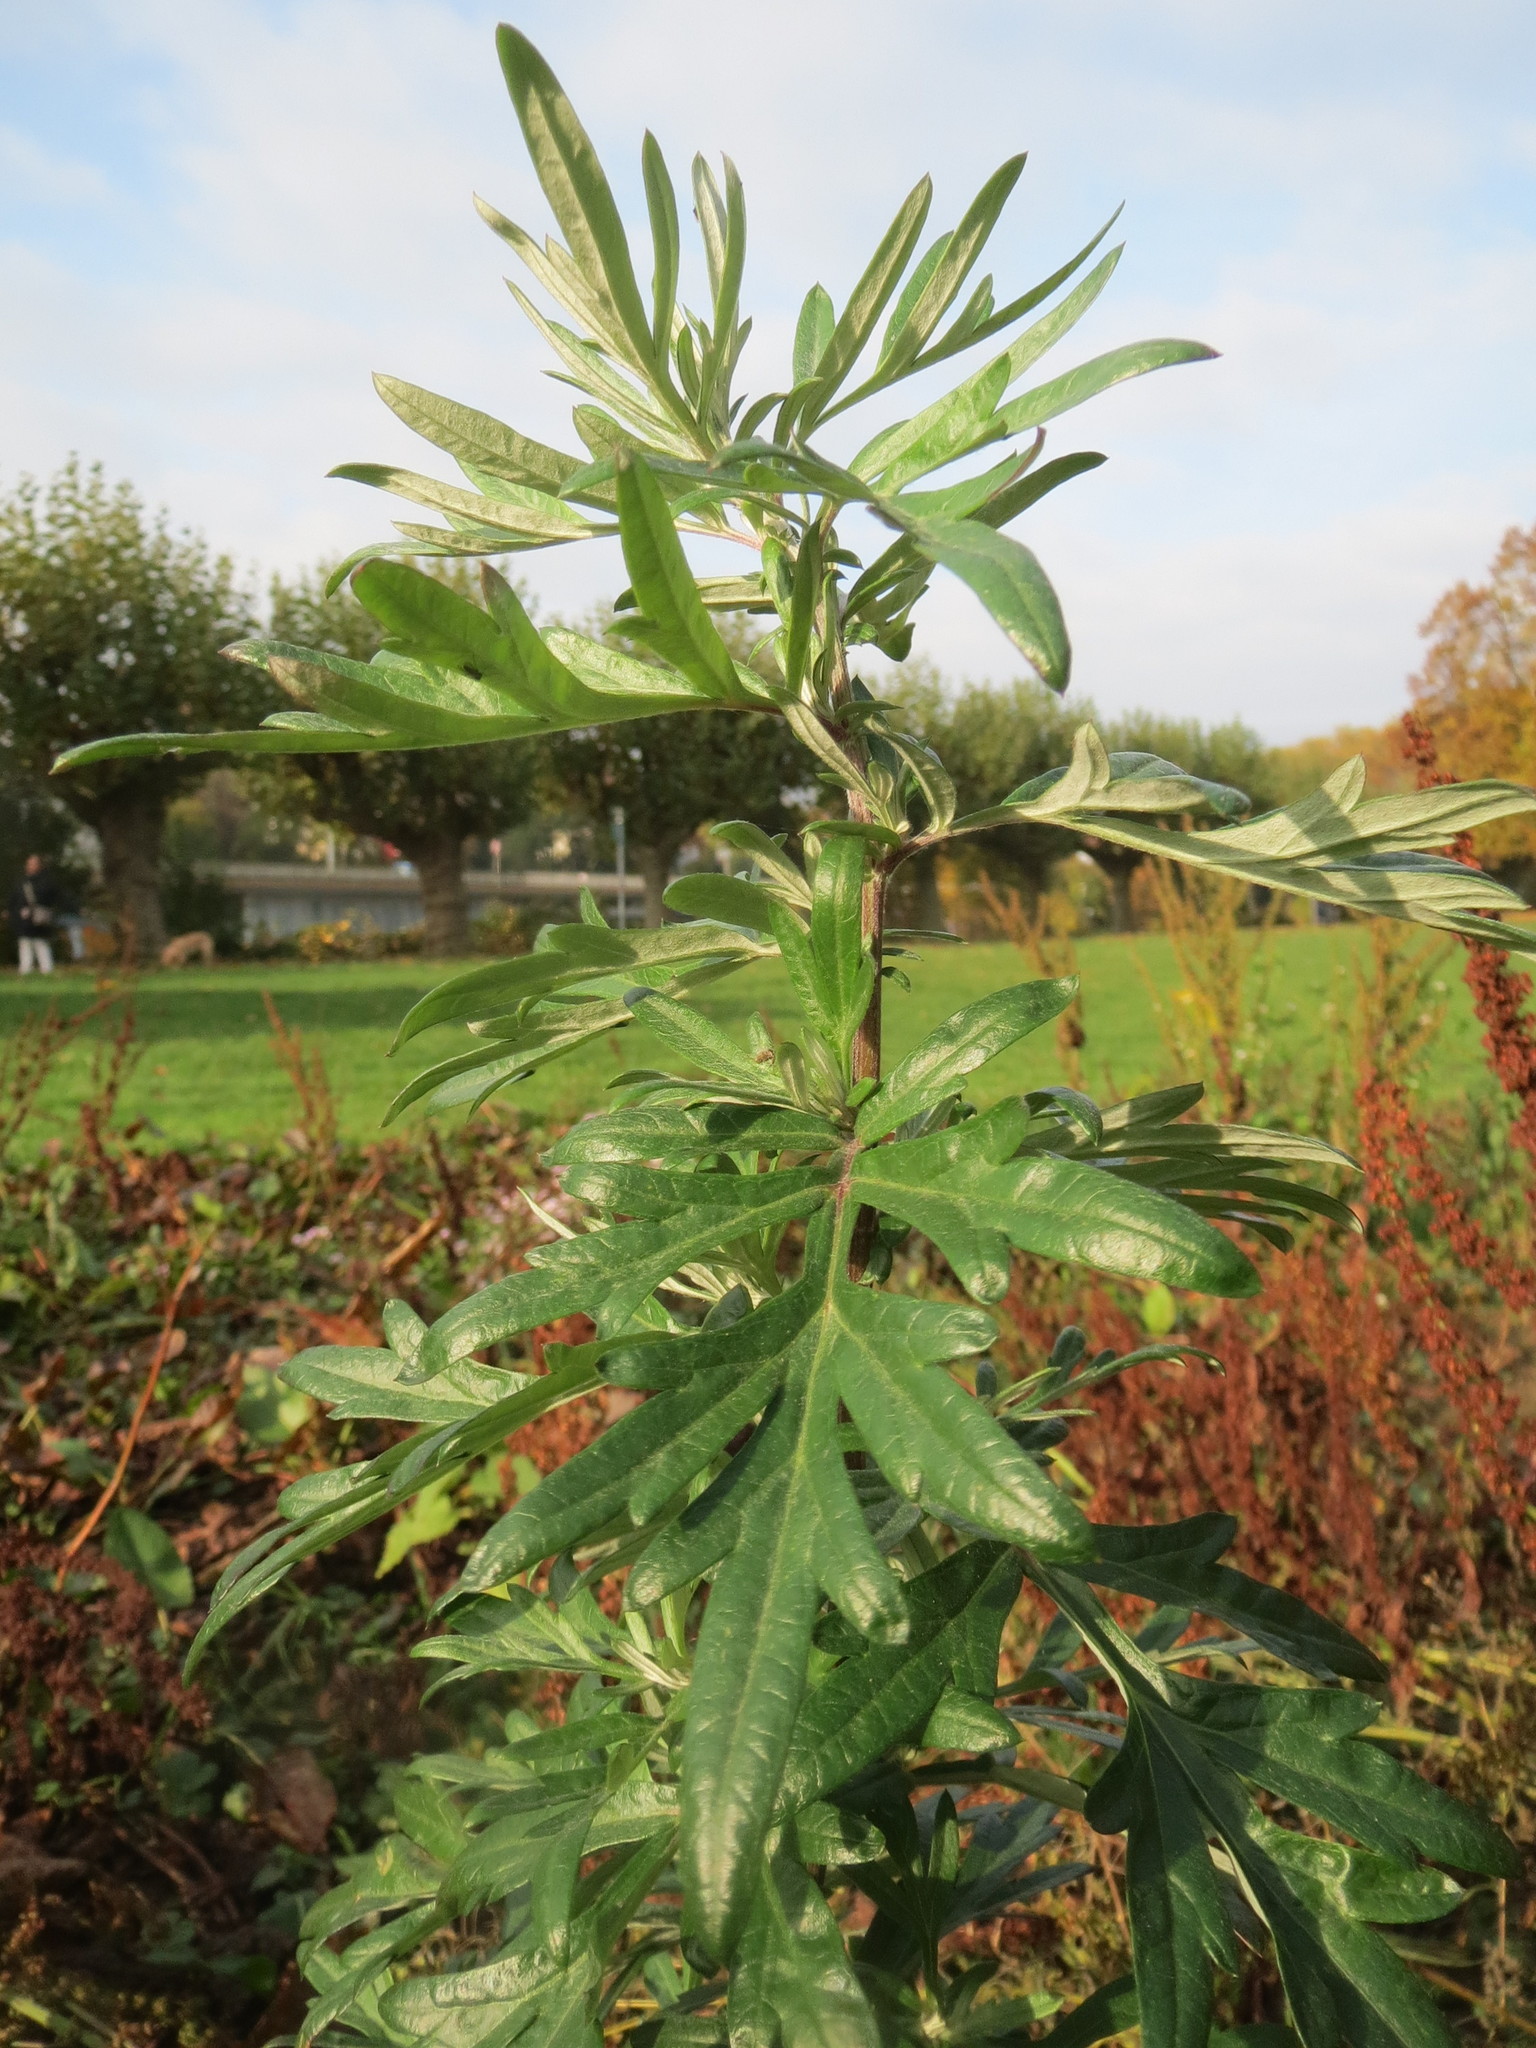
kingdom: Plantae
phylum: Tracheophyta
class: Magnoliopsida
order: Asterales
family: Asteraceae
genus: Artemisia
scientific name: Artemisia vulgaris
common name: Mugwort
